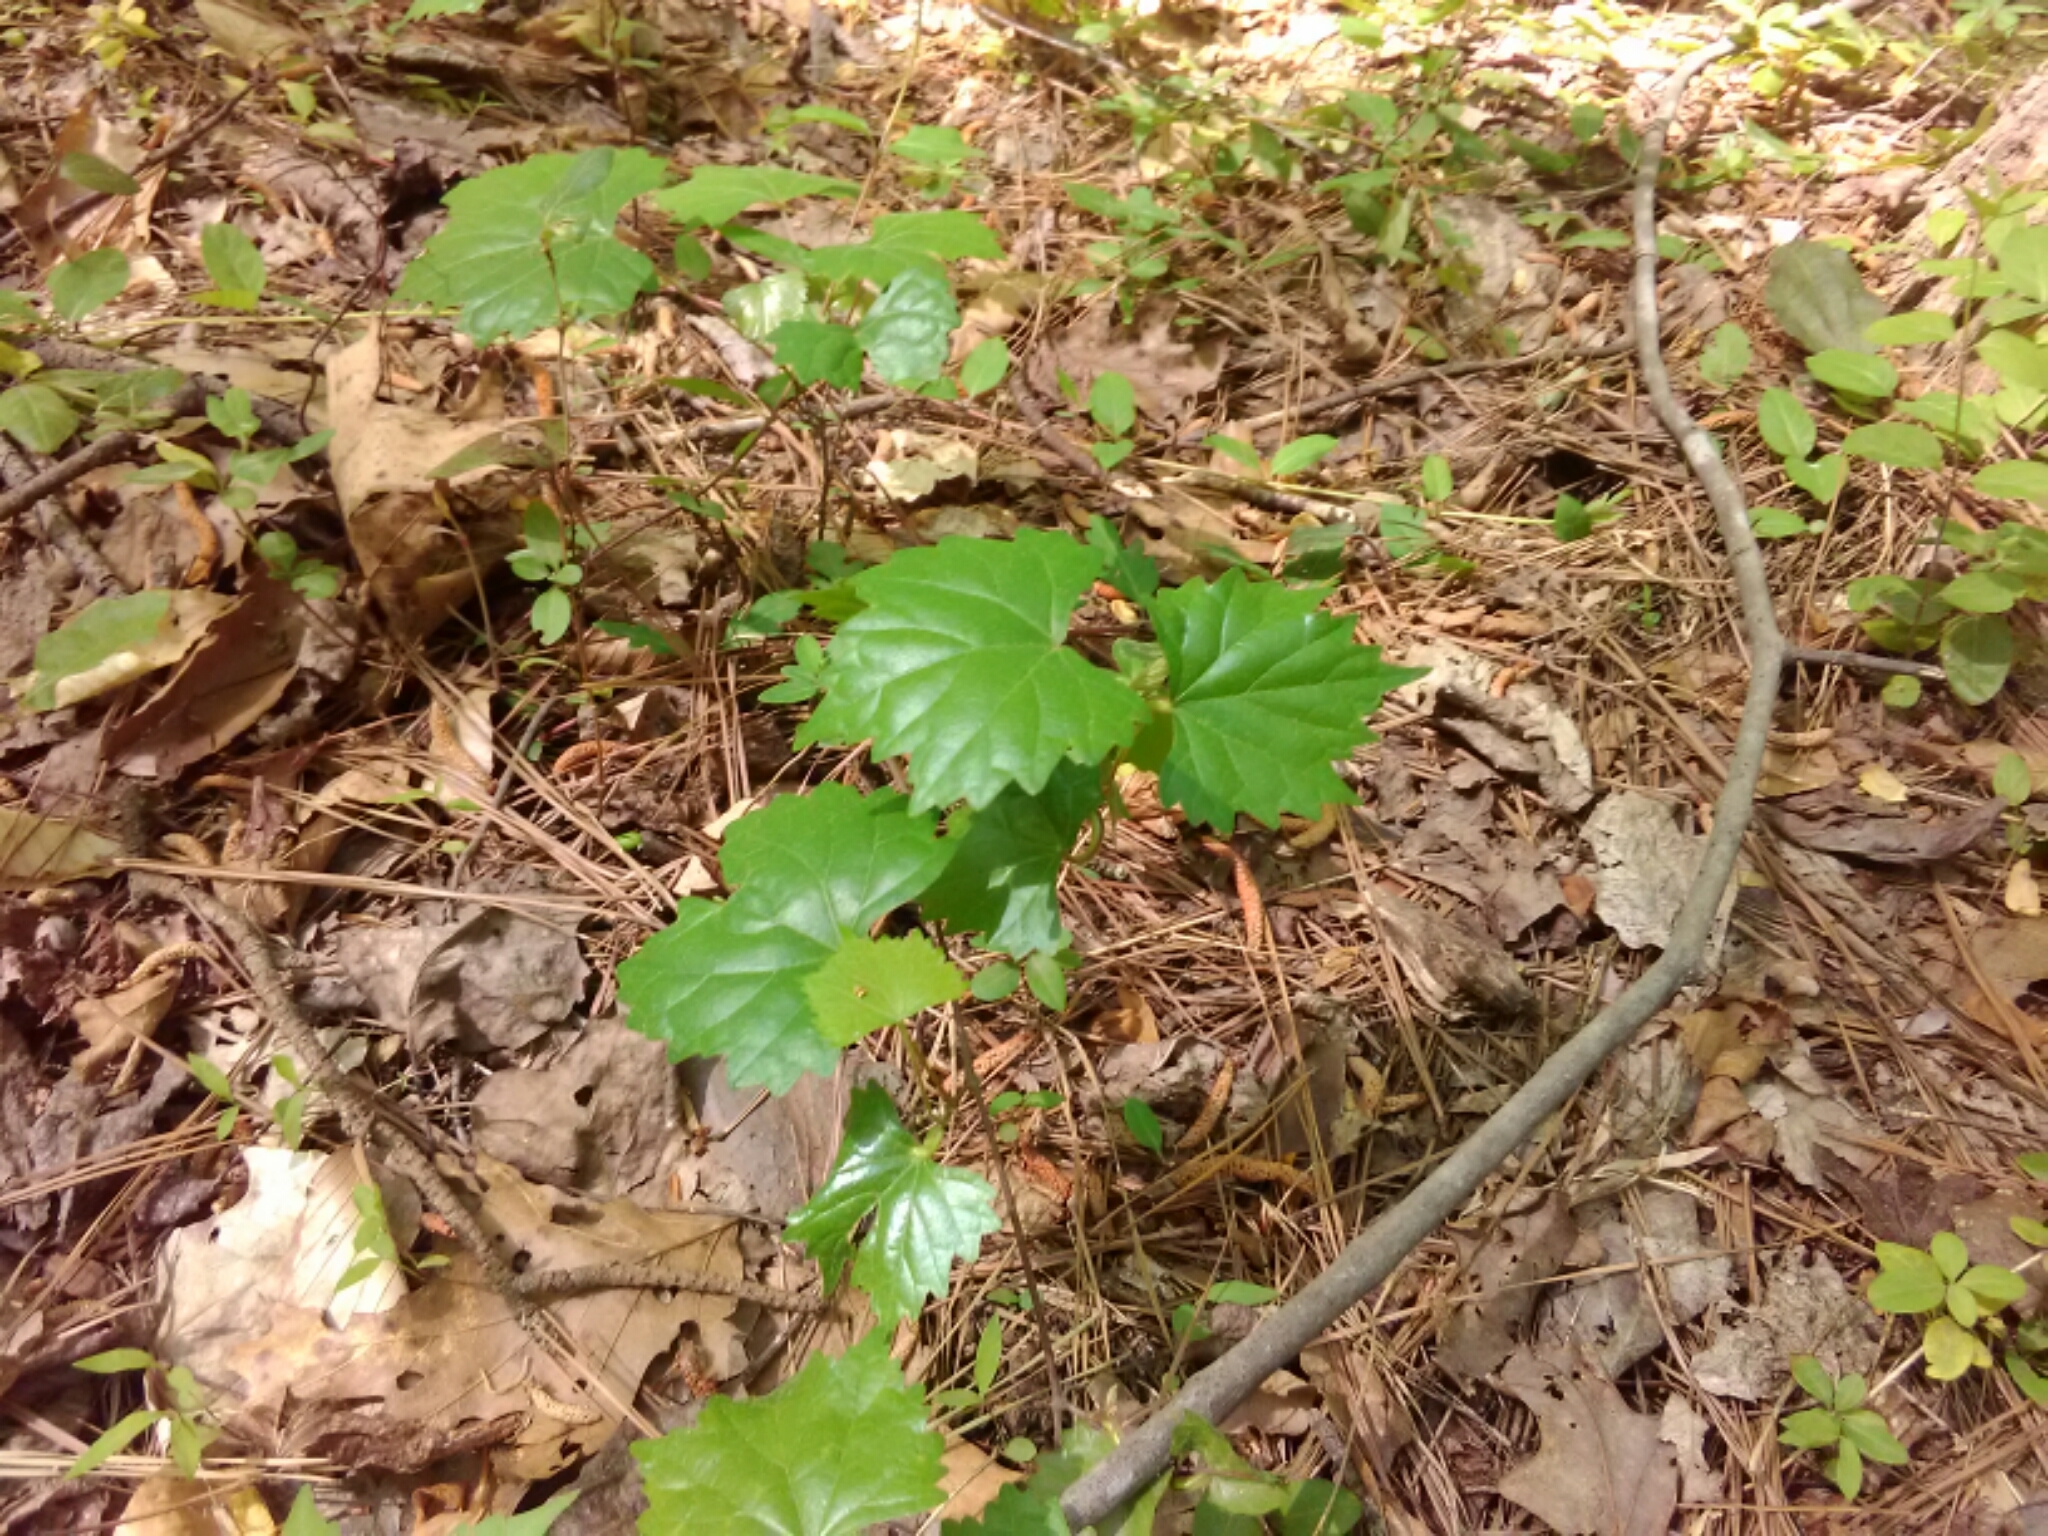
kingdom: Plantae
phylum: Tracheophyta
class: Magnoliopsida
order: Vitales
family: Vitaceae
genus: Vitis
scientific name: Vitis rotundifolia
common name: Muscadine grape
